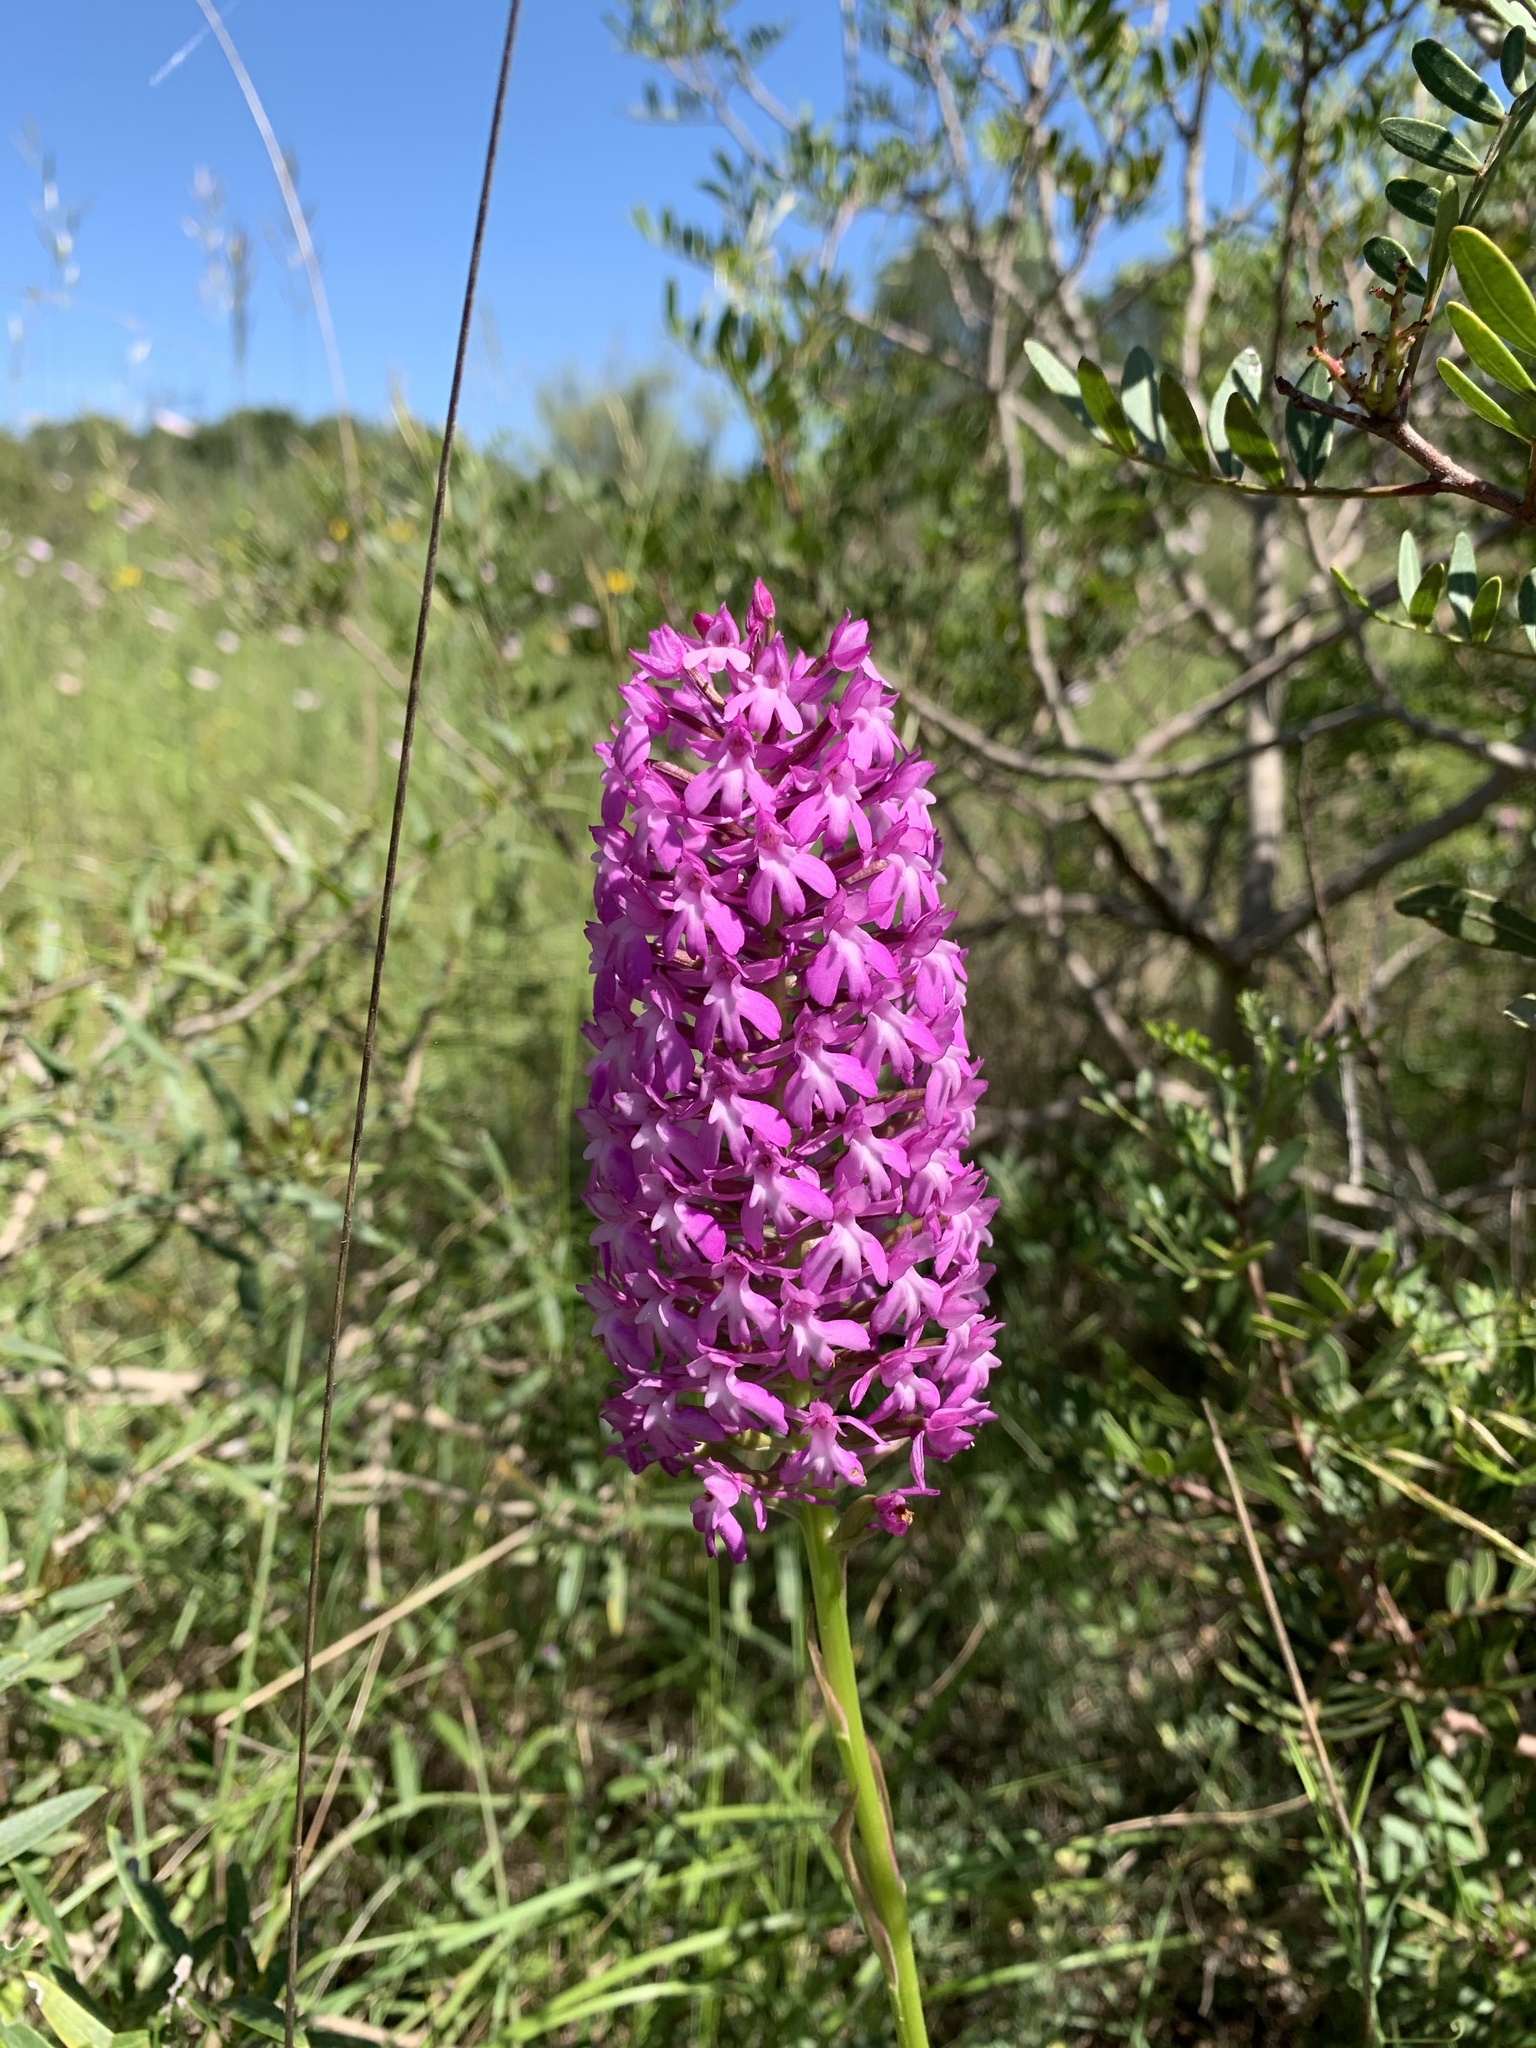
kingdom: Plantae
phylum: Tracheophyta
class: Liliopsida
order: Asparagales
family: Orchidaceae
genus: Anacamptis
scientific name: Anacamptis pyramidalis
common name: Pyramidal orchid
